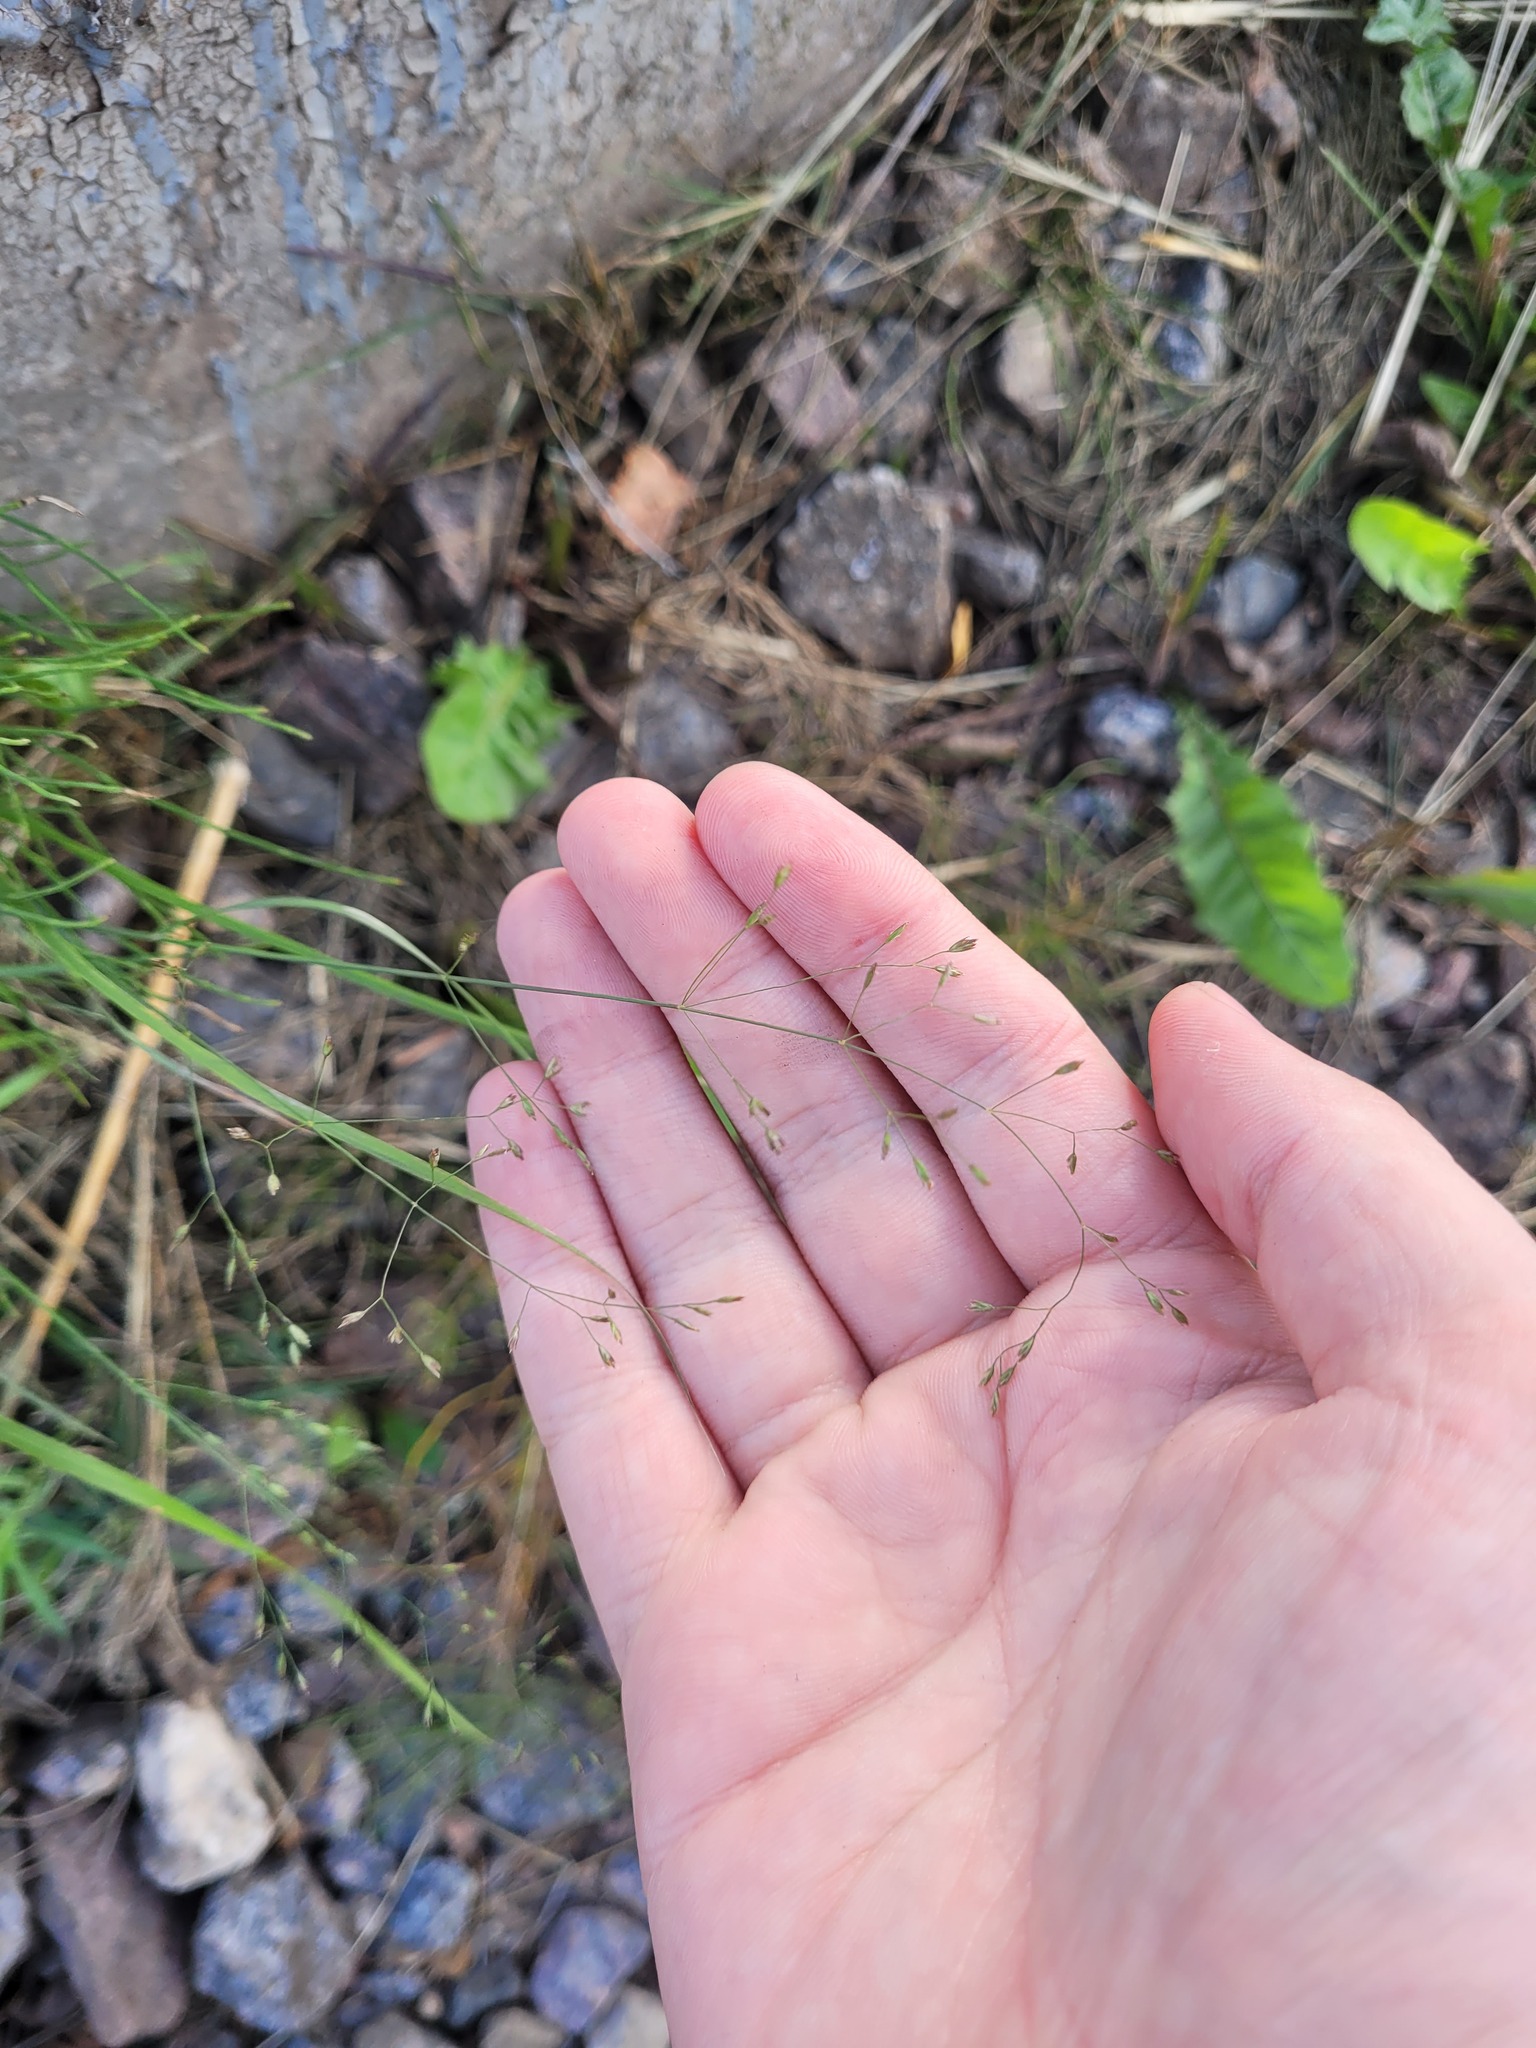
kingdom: Plantae
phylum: Tracheophyta
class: Liliopsida
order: Poales
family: Poaceae
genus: Poa
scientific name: Poa palustris
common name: Swamp meadow-grass
